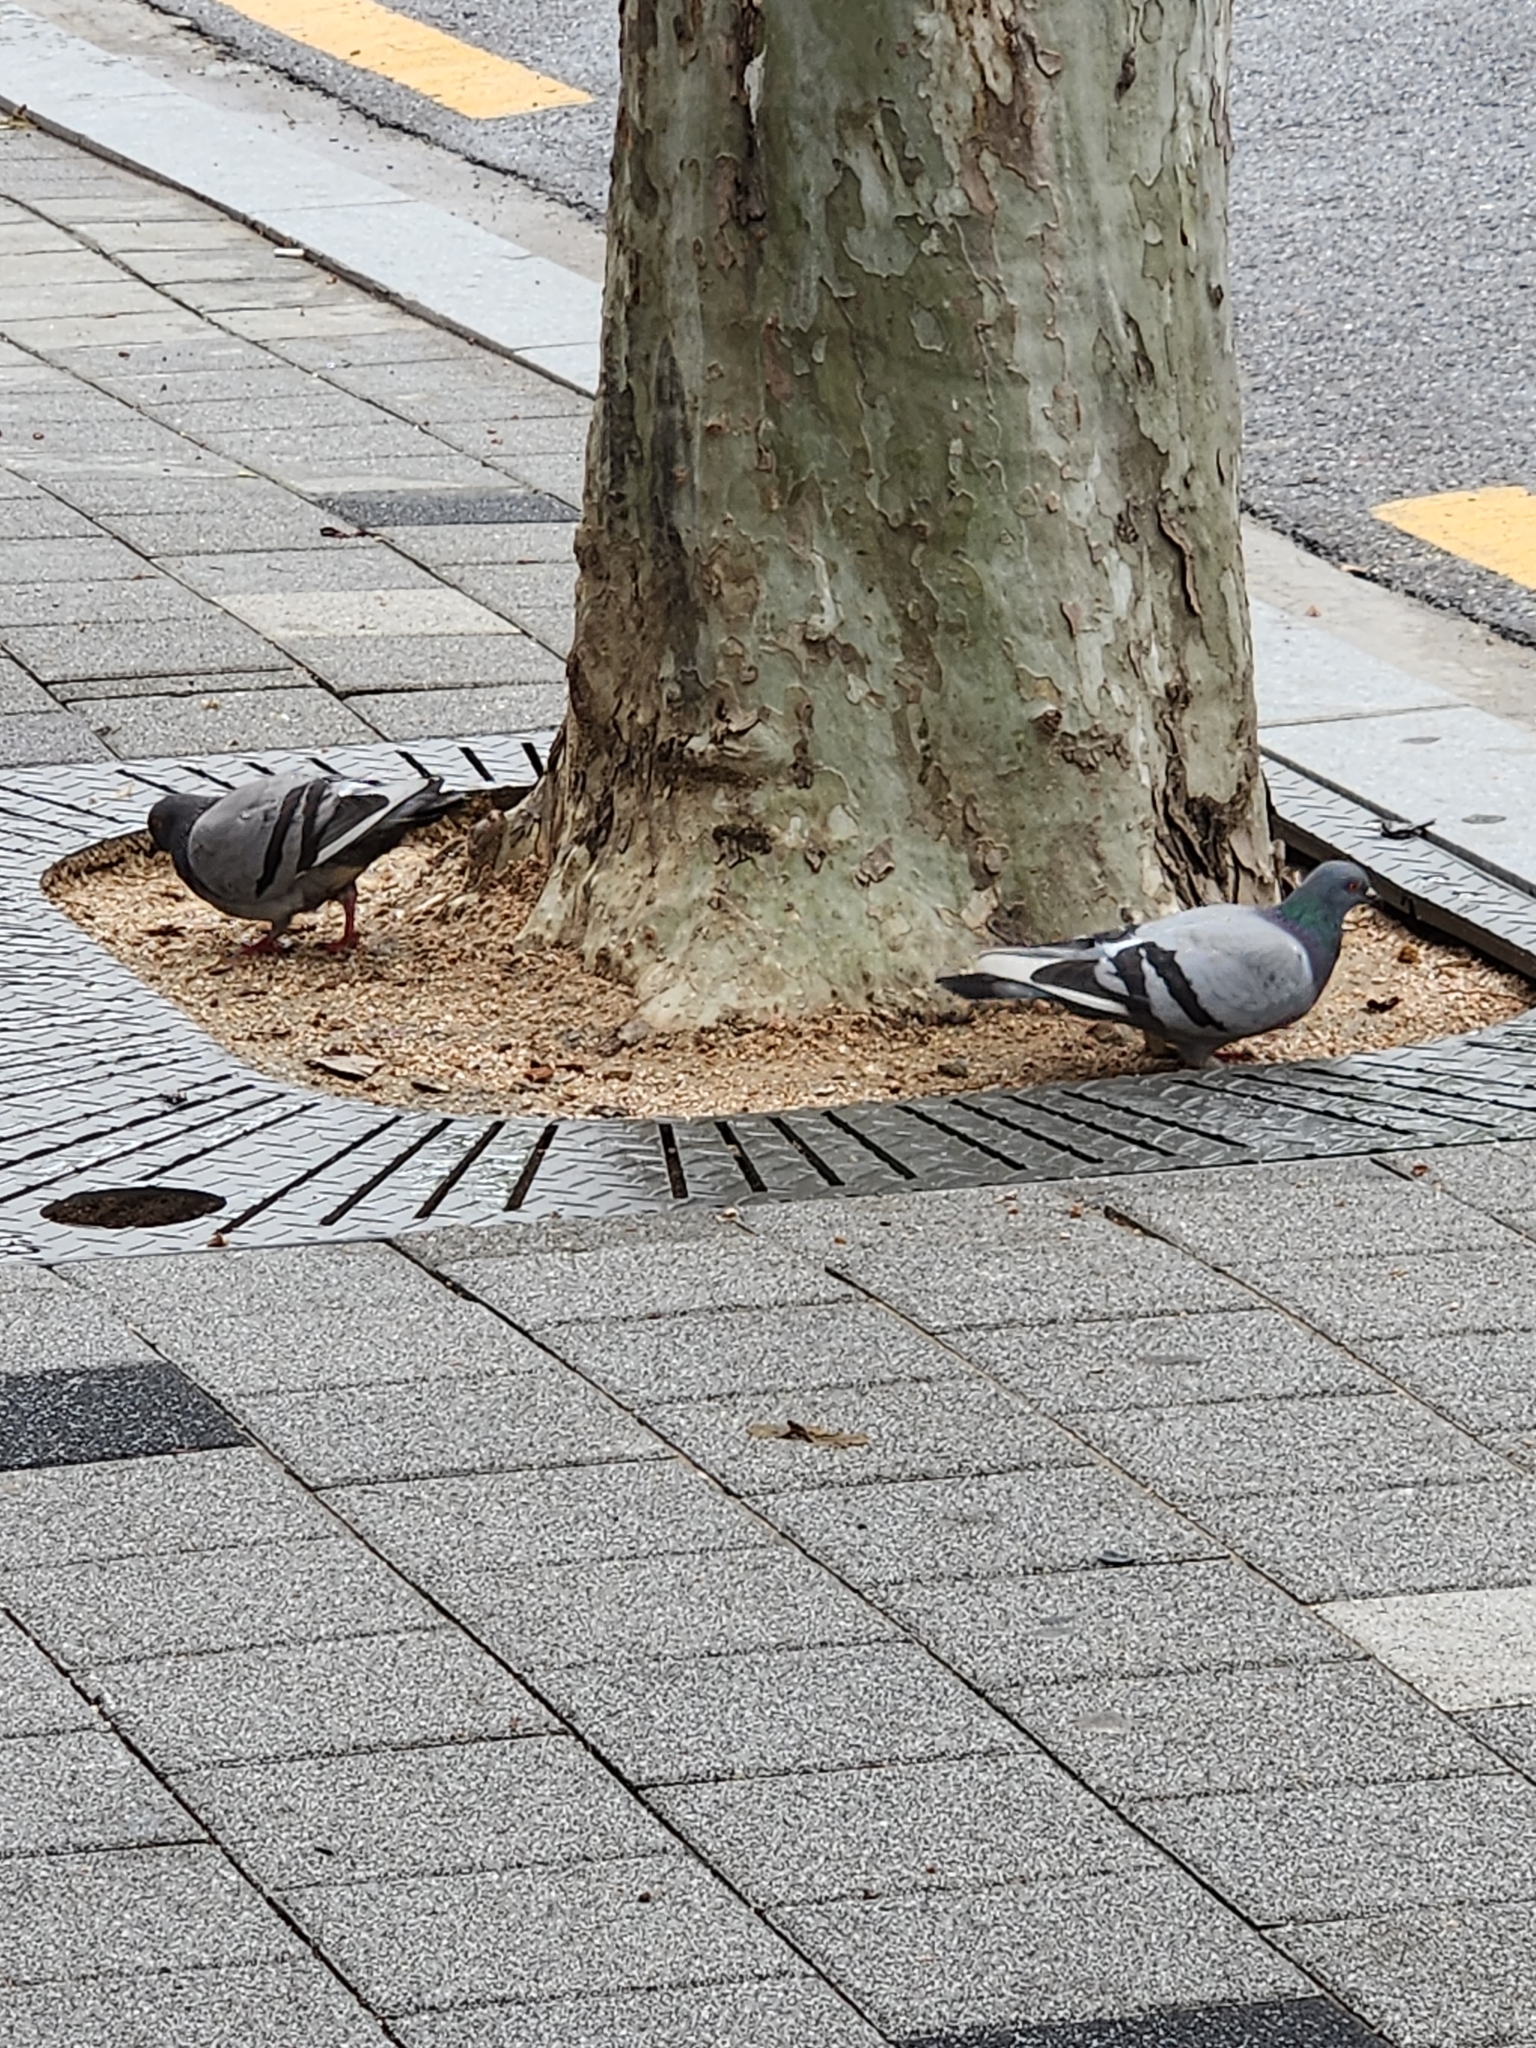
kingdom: Animalia
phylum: Chordata
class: Aves
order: Columbiformes
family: Columbidae
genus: Columba
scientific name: Columba livia
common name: Rock pigeon
